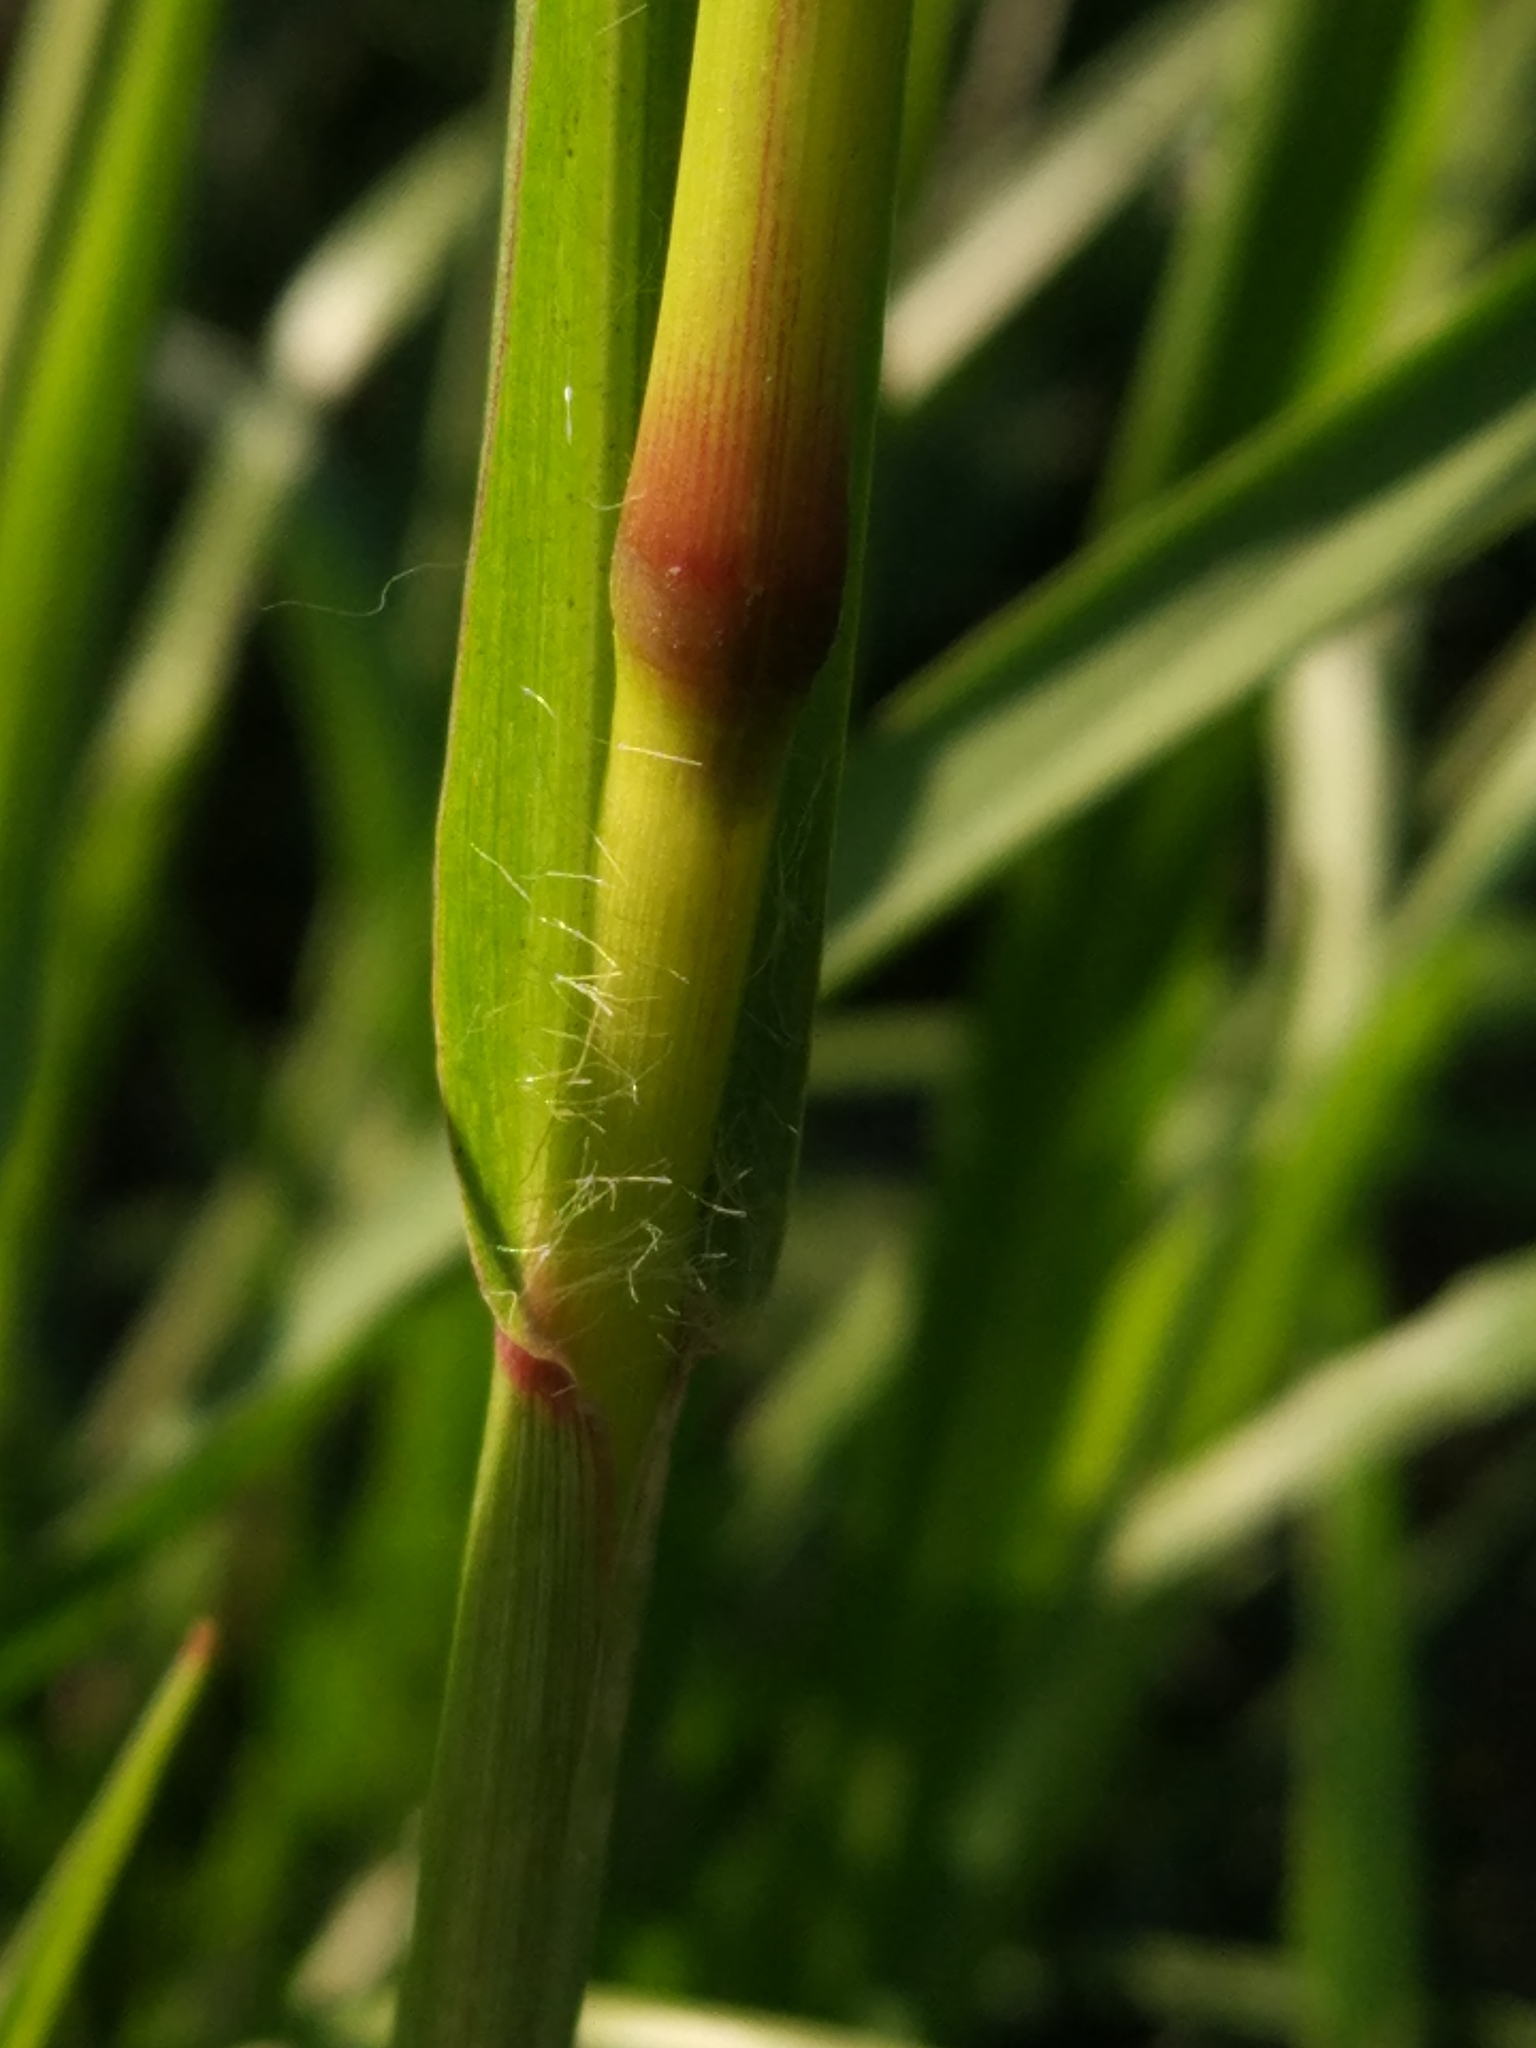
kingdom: Plantae
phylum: Tracheophyta
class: Liliopsida
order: Poales
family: Poaceae
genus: Setaria
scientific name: Setaria pumila
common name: Yellow bristle-grass
